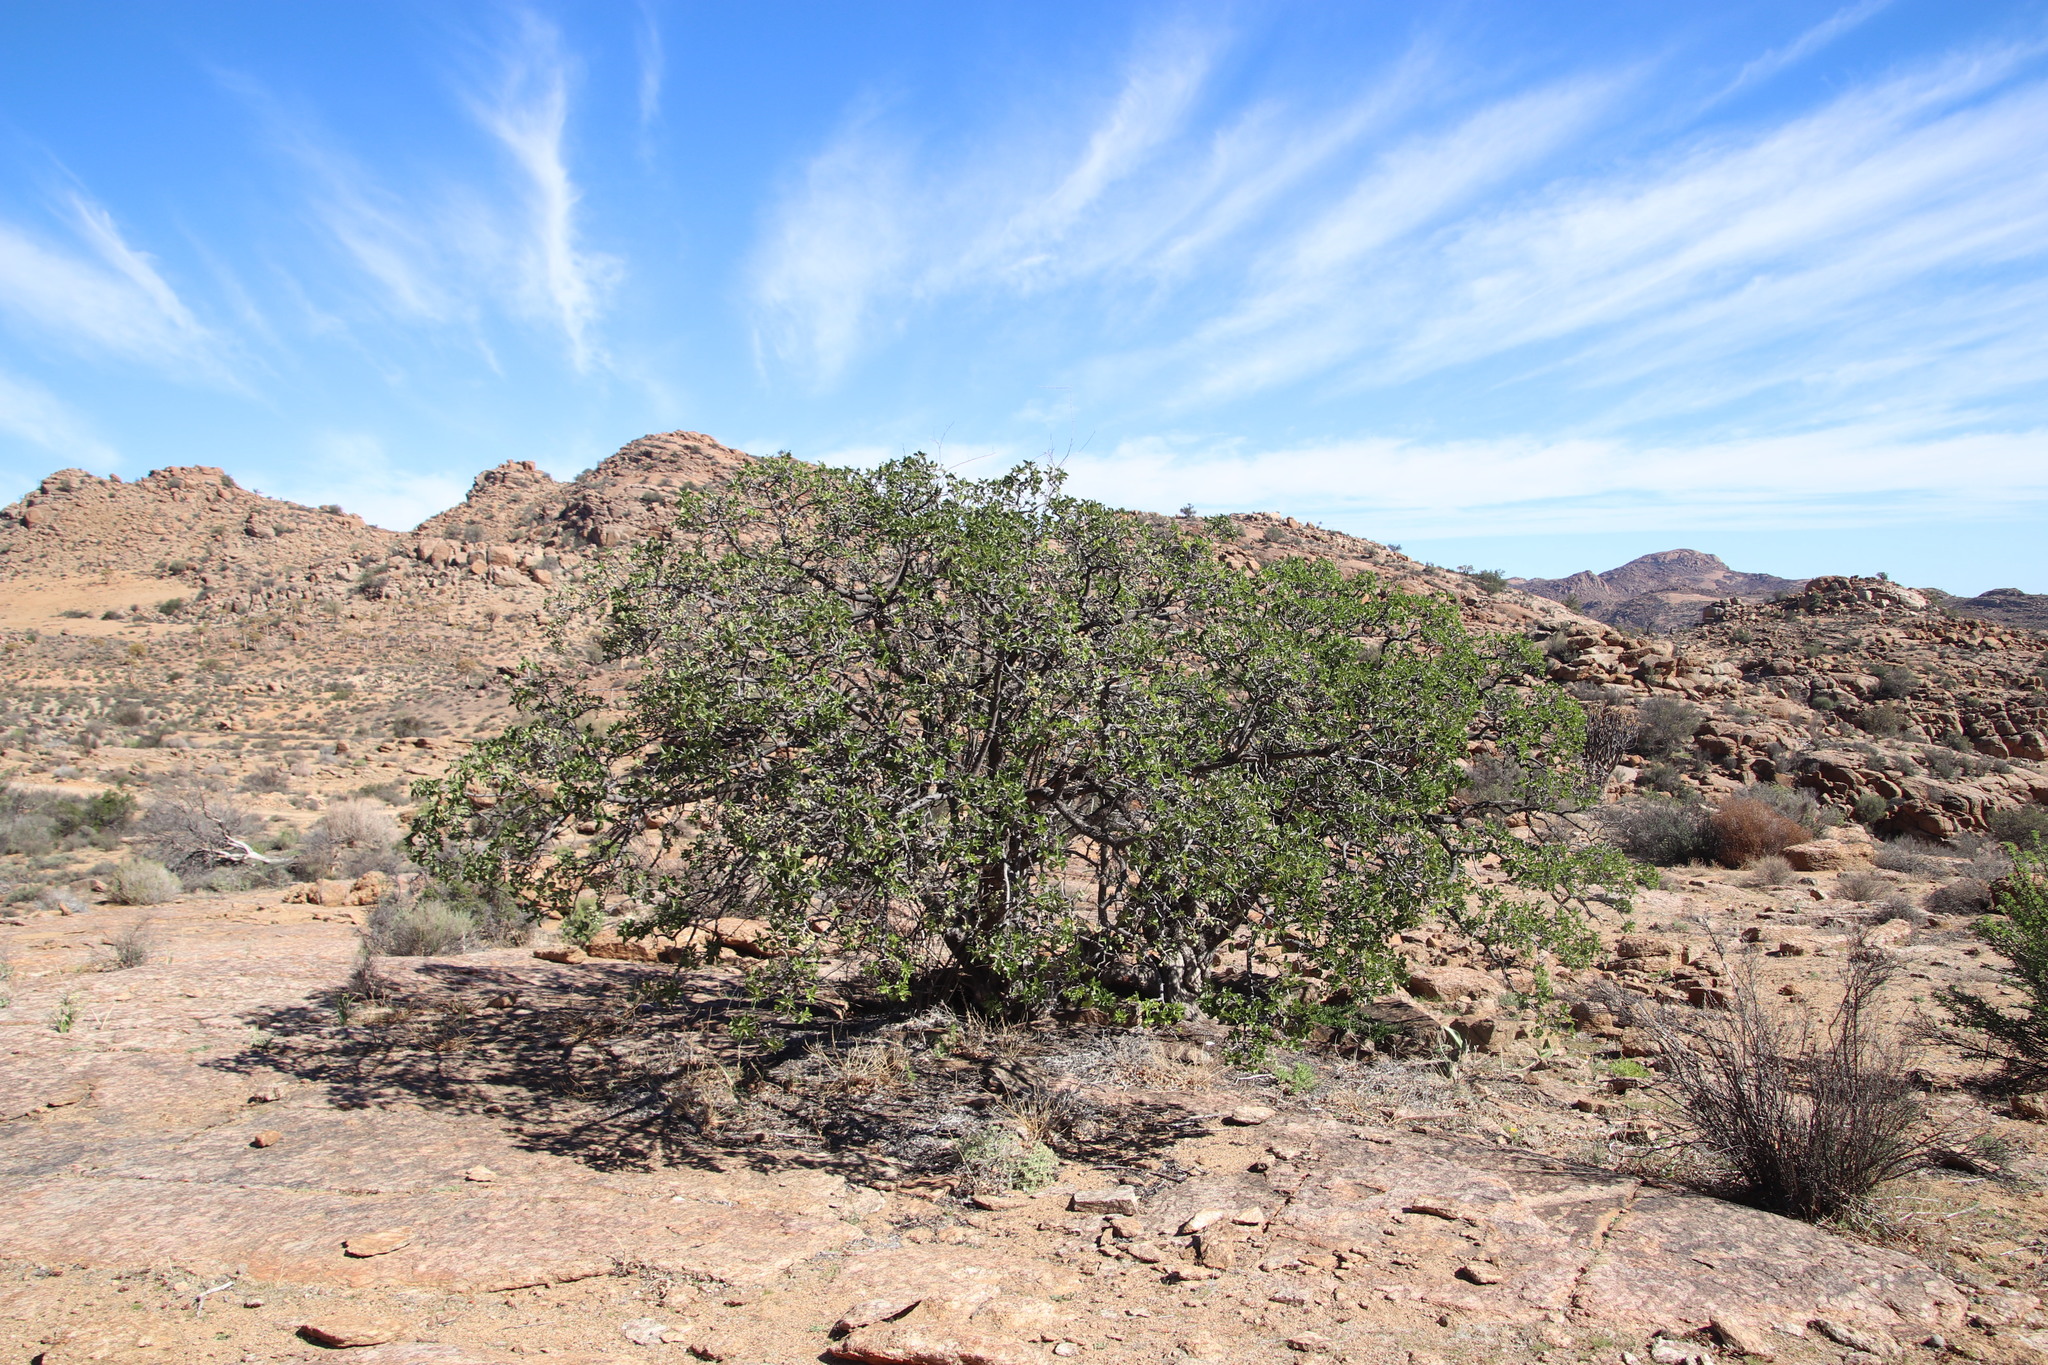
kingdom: Plantae
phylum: Tracheophyta
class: Magnoliopsida
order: Sapindales
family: Anacardiaceae
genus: Ozoroa
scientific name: Ozoroa dispar
